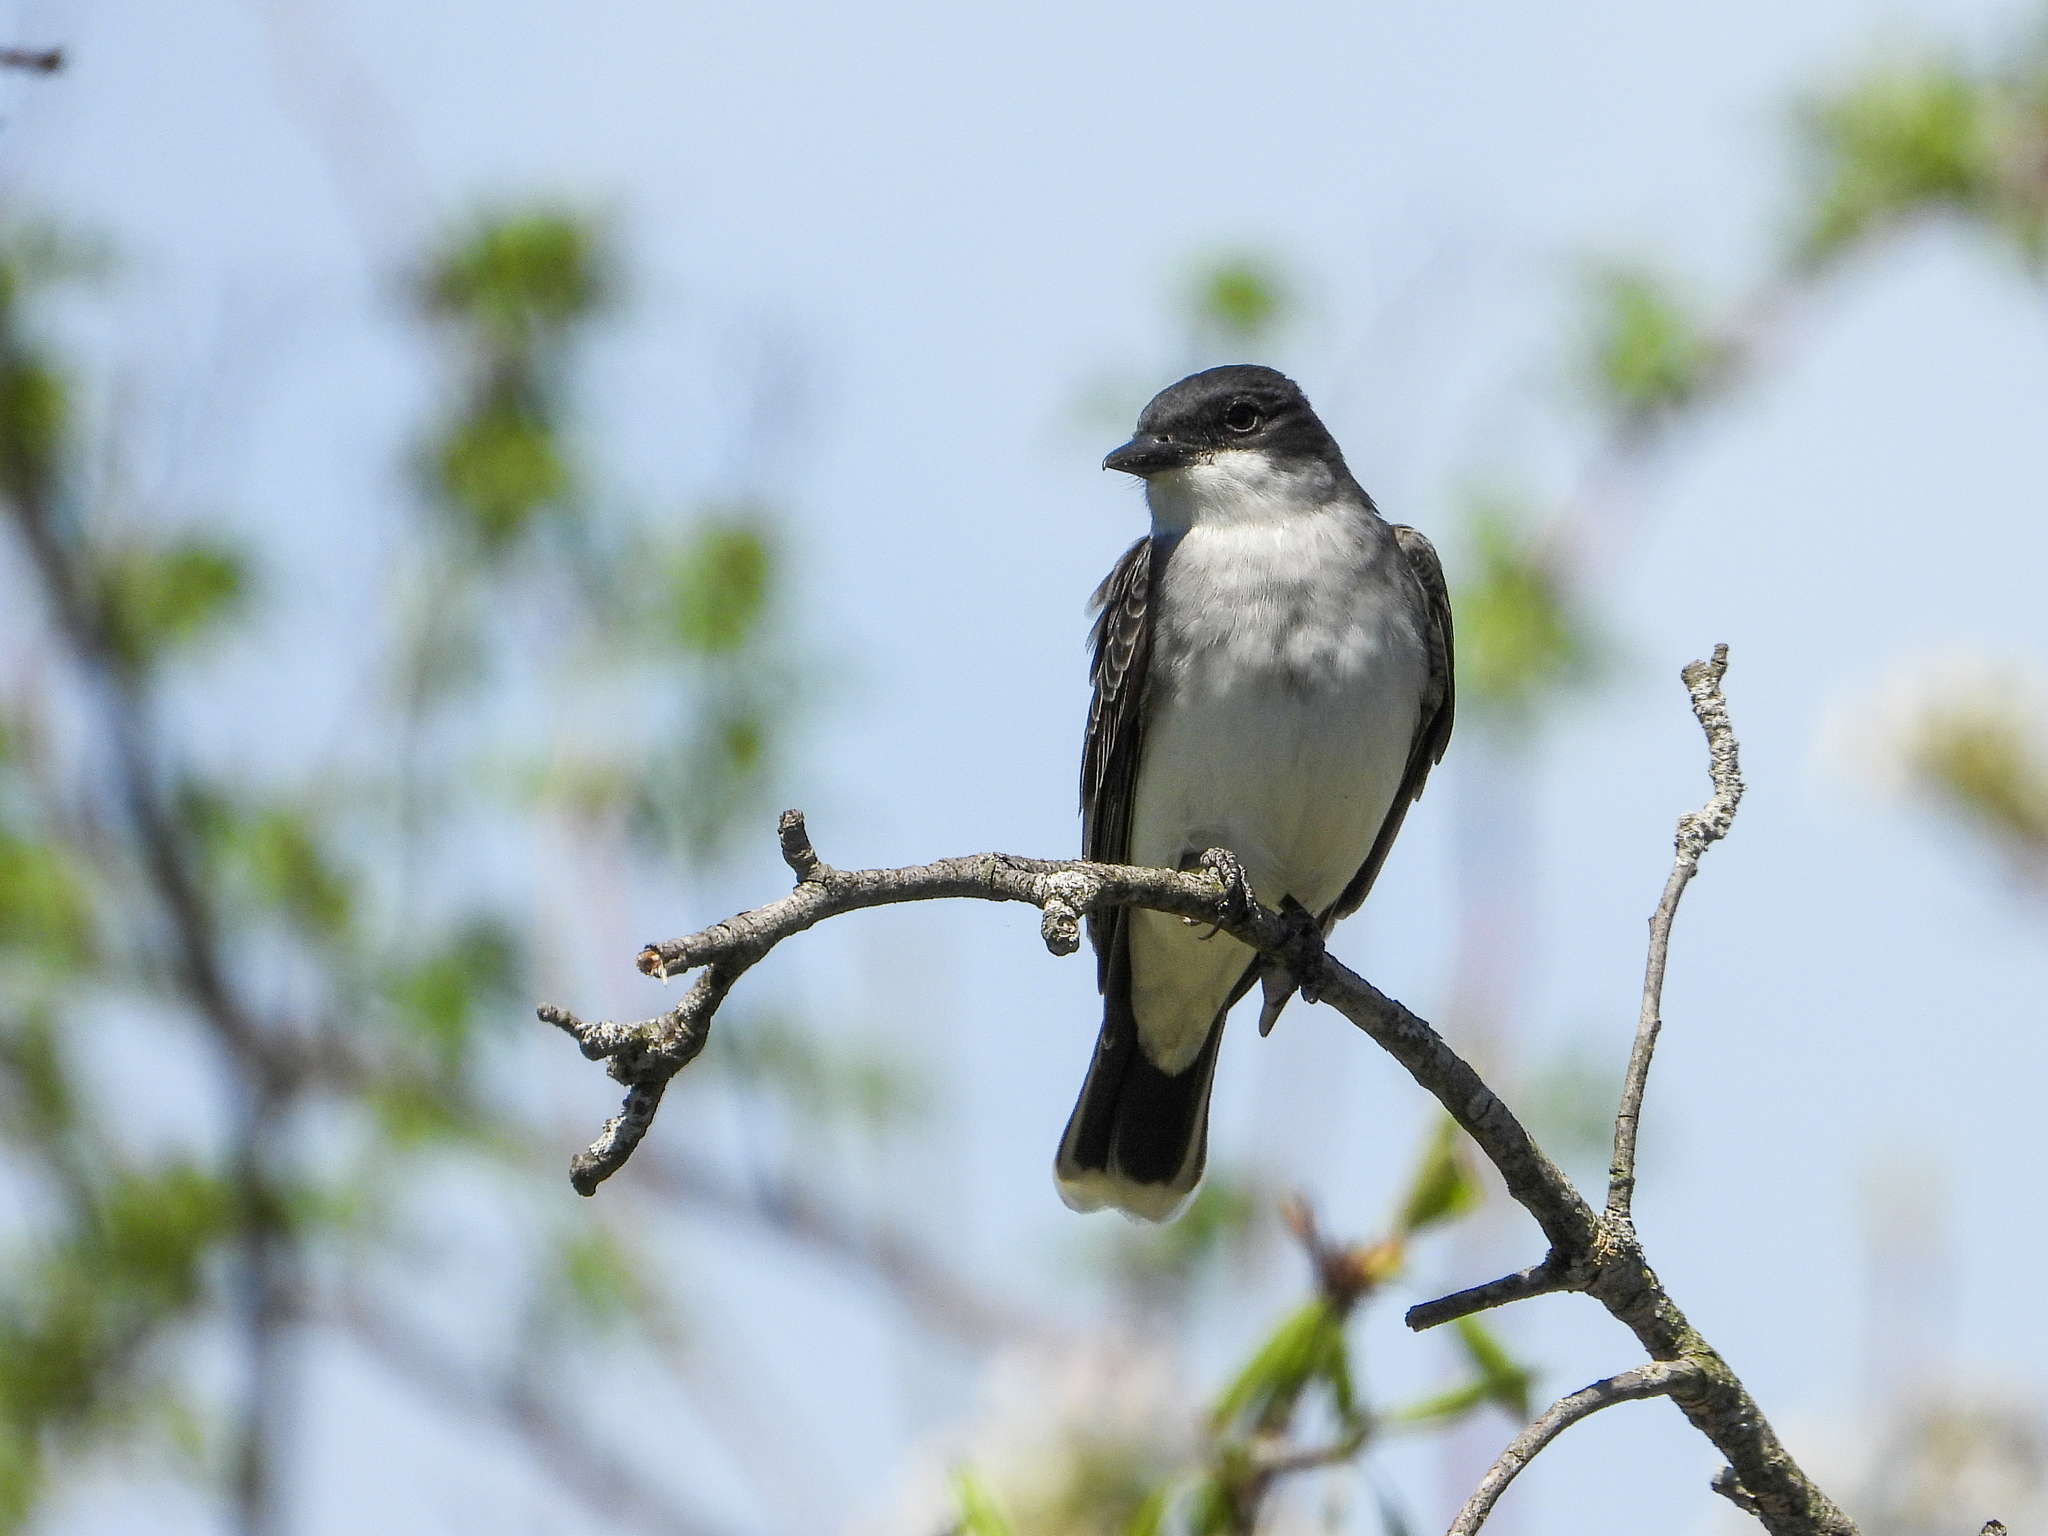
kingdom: Animalia
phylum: Chordata
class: Aves
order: Passeriformes
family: Tyrannidae
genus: Tyrannus
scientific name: Tyrannus tyrannus
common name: Eastern kingbird
